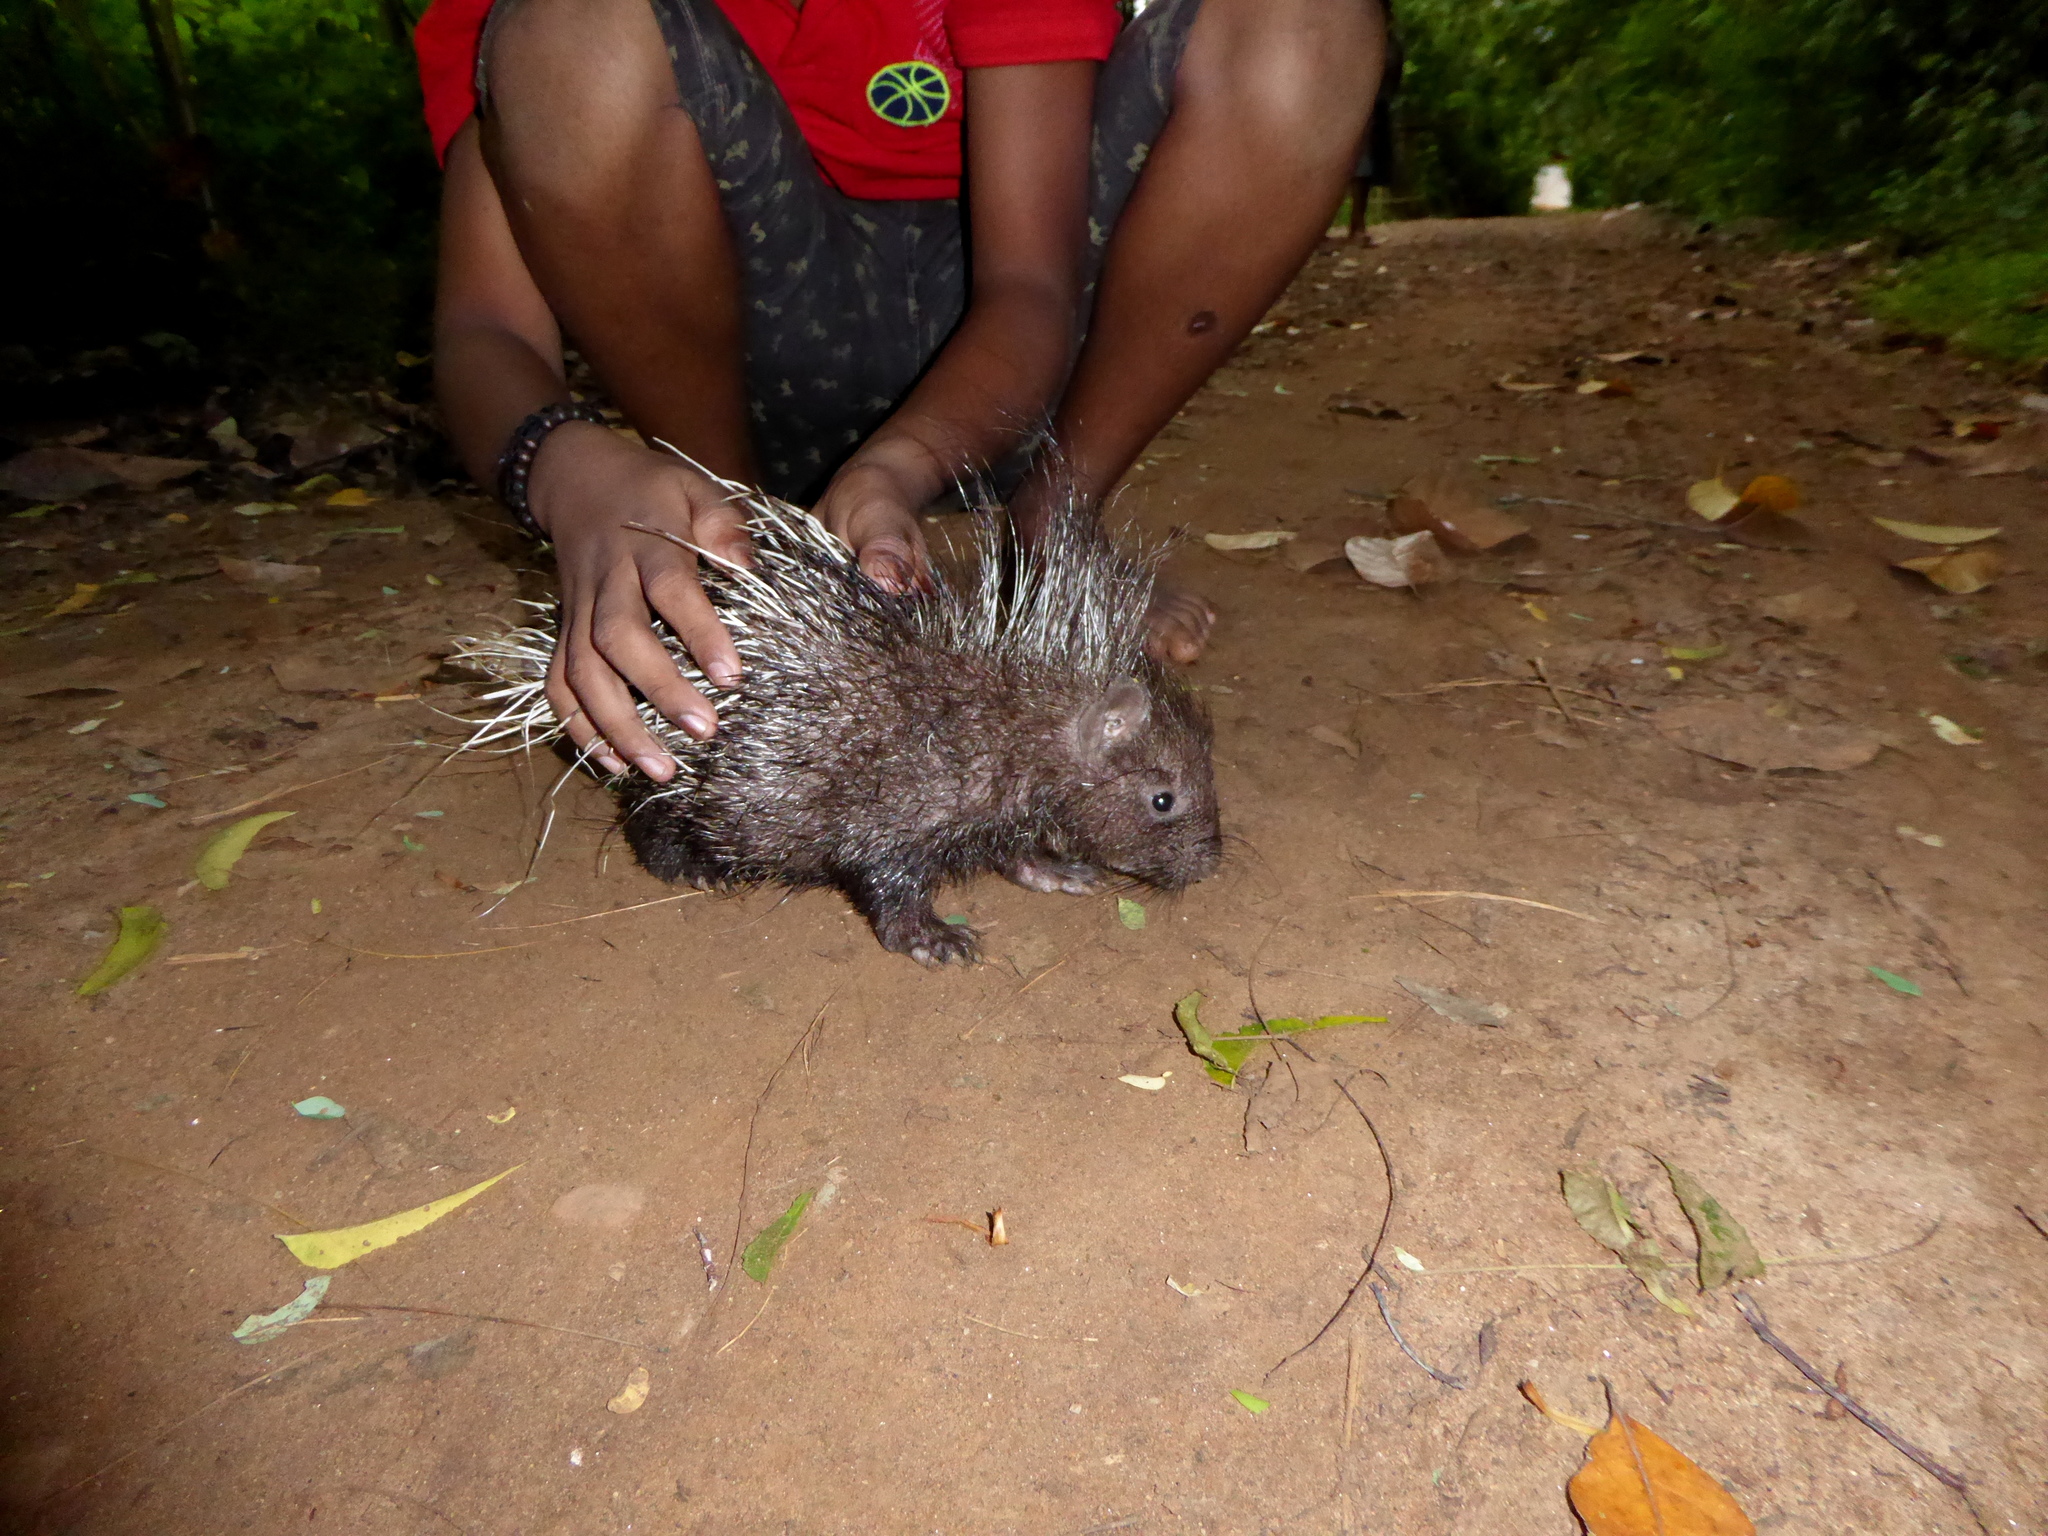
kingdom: Animalia
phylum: Chordata
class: Mammalia
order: Rodentia
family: Hystricidae
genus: Hystrix
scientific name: Hystrix indica
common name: Indian crested porcupine
